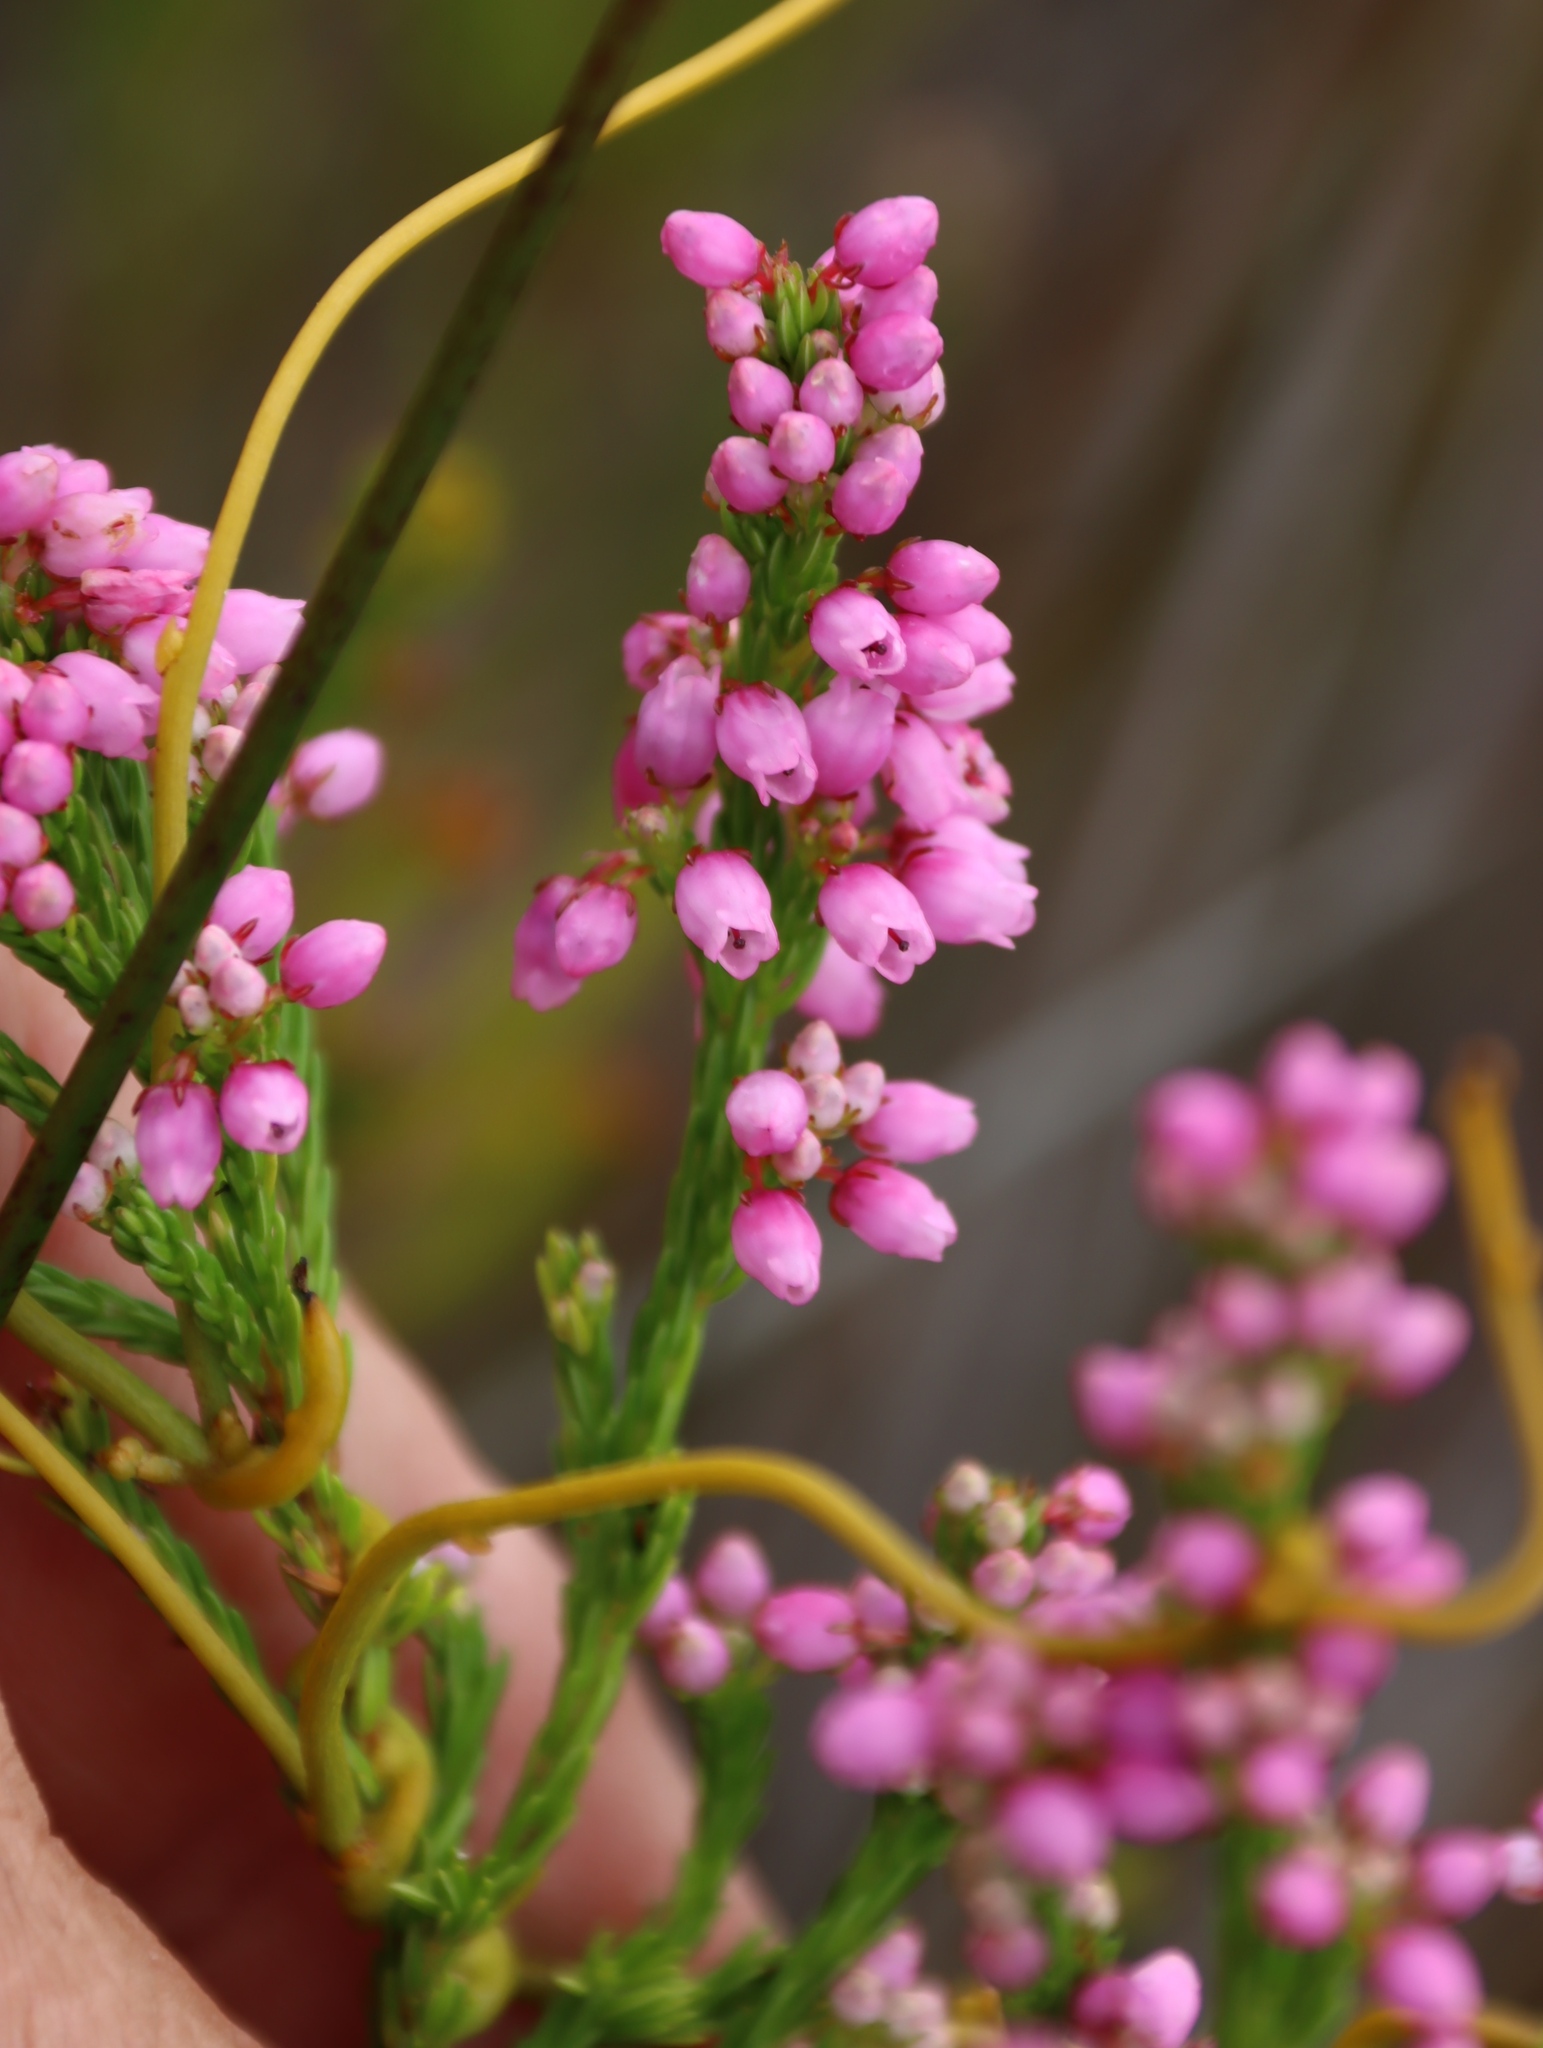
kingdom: Plantae
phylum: Tracheophyta
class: Magnoliopsida
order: Ericales
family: Ericaceae
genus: Erica
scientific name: Erica laeta
